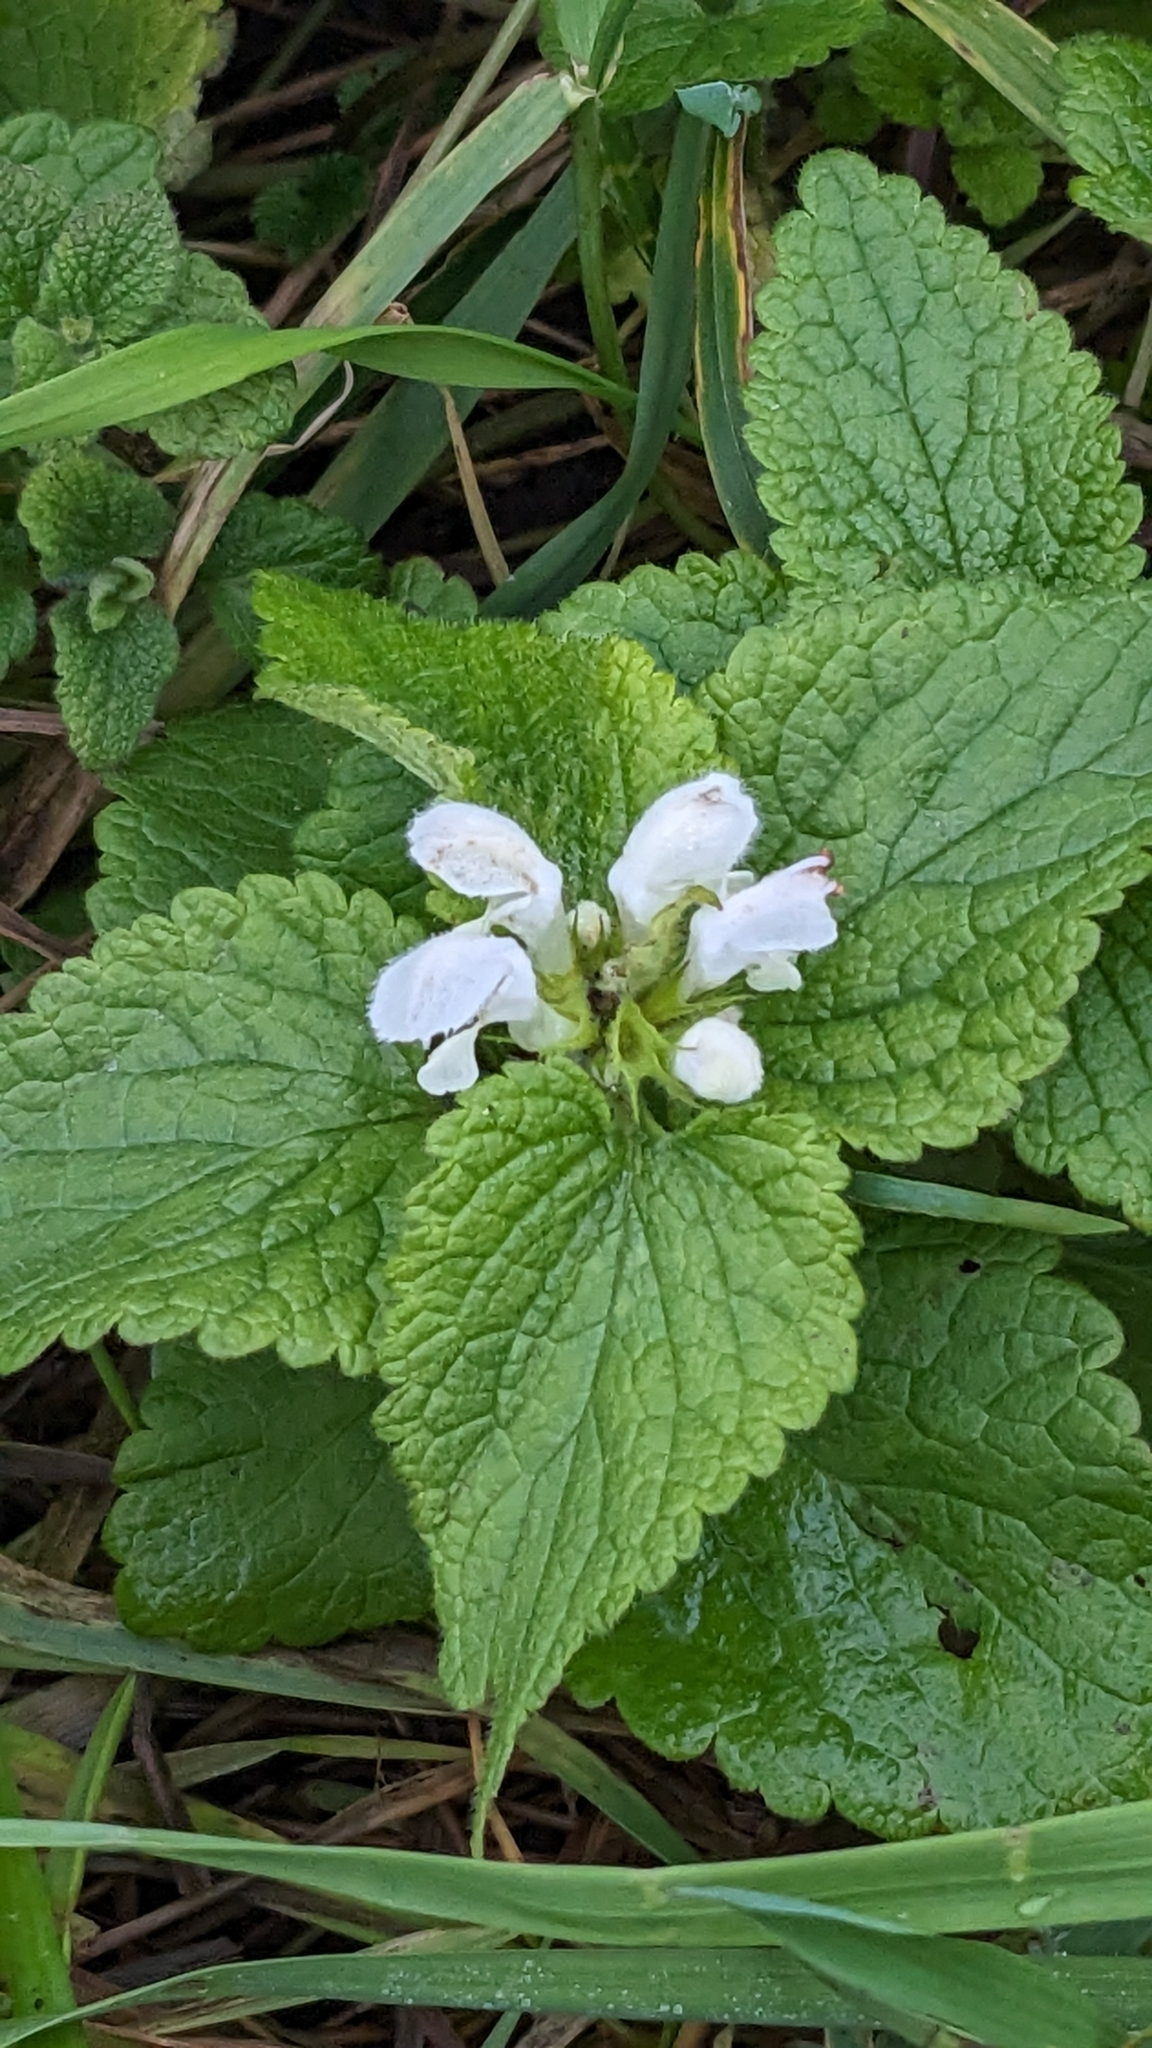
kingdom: Plantae
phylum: Tracheophyta
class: Magnoliopsida
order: Lamiales
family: Lamiaceae
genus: Lamium
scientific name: Lamium album
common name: White dead-nettle
